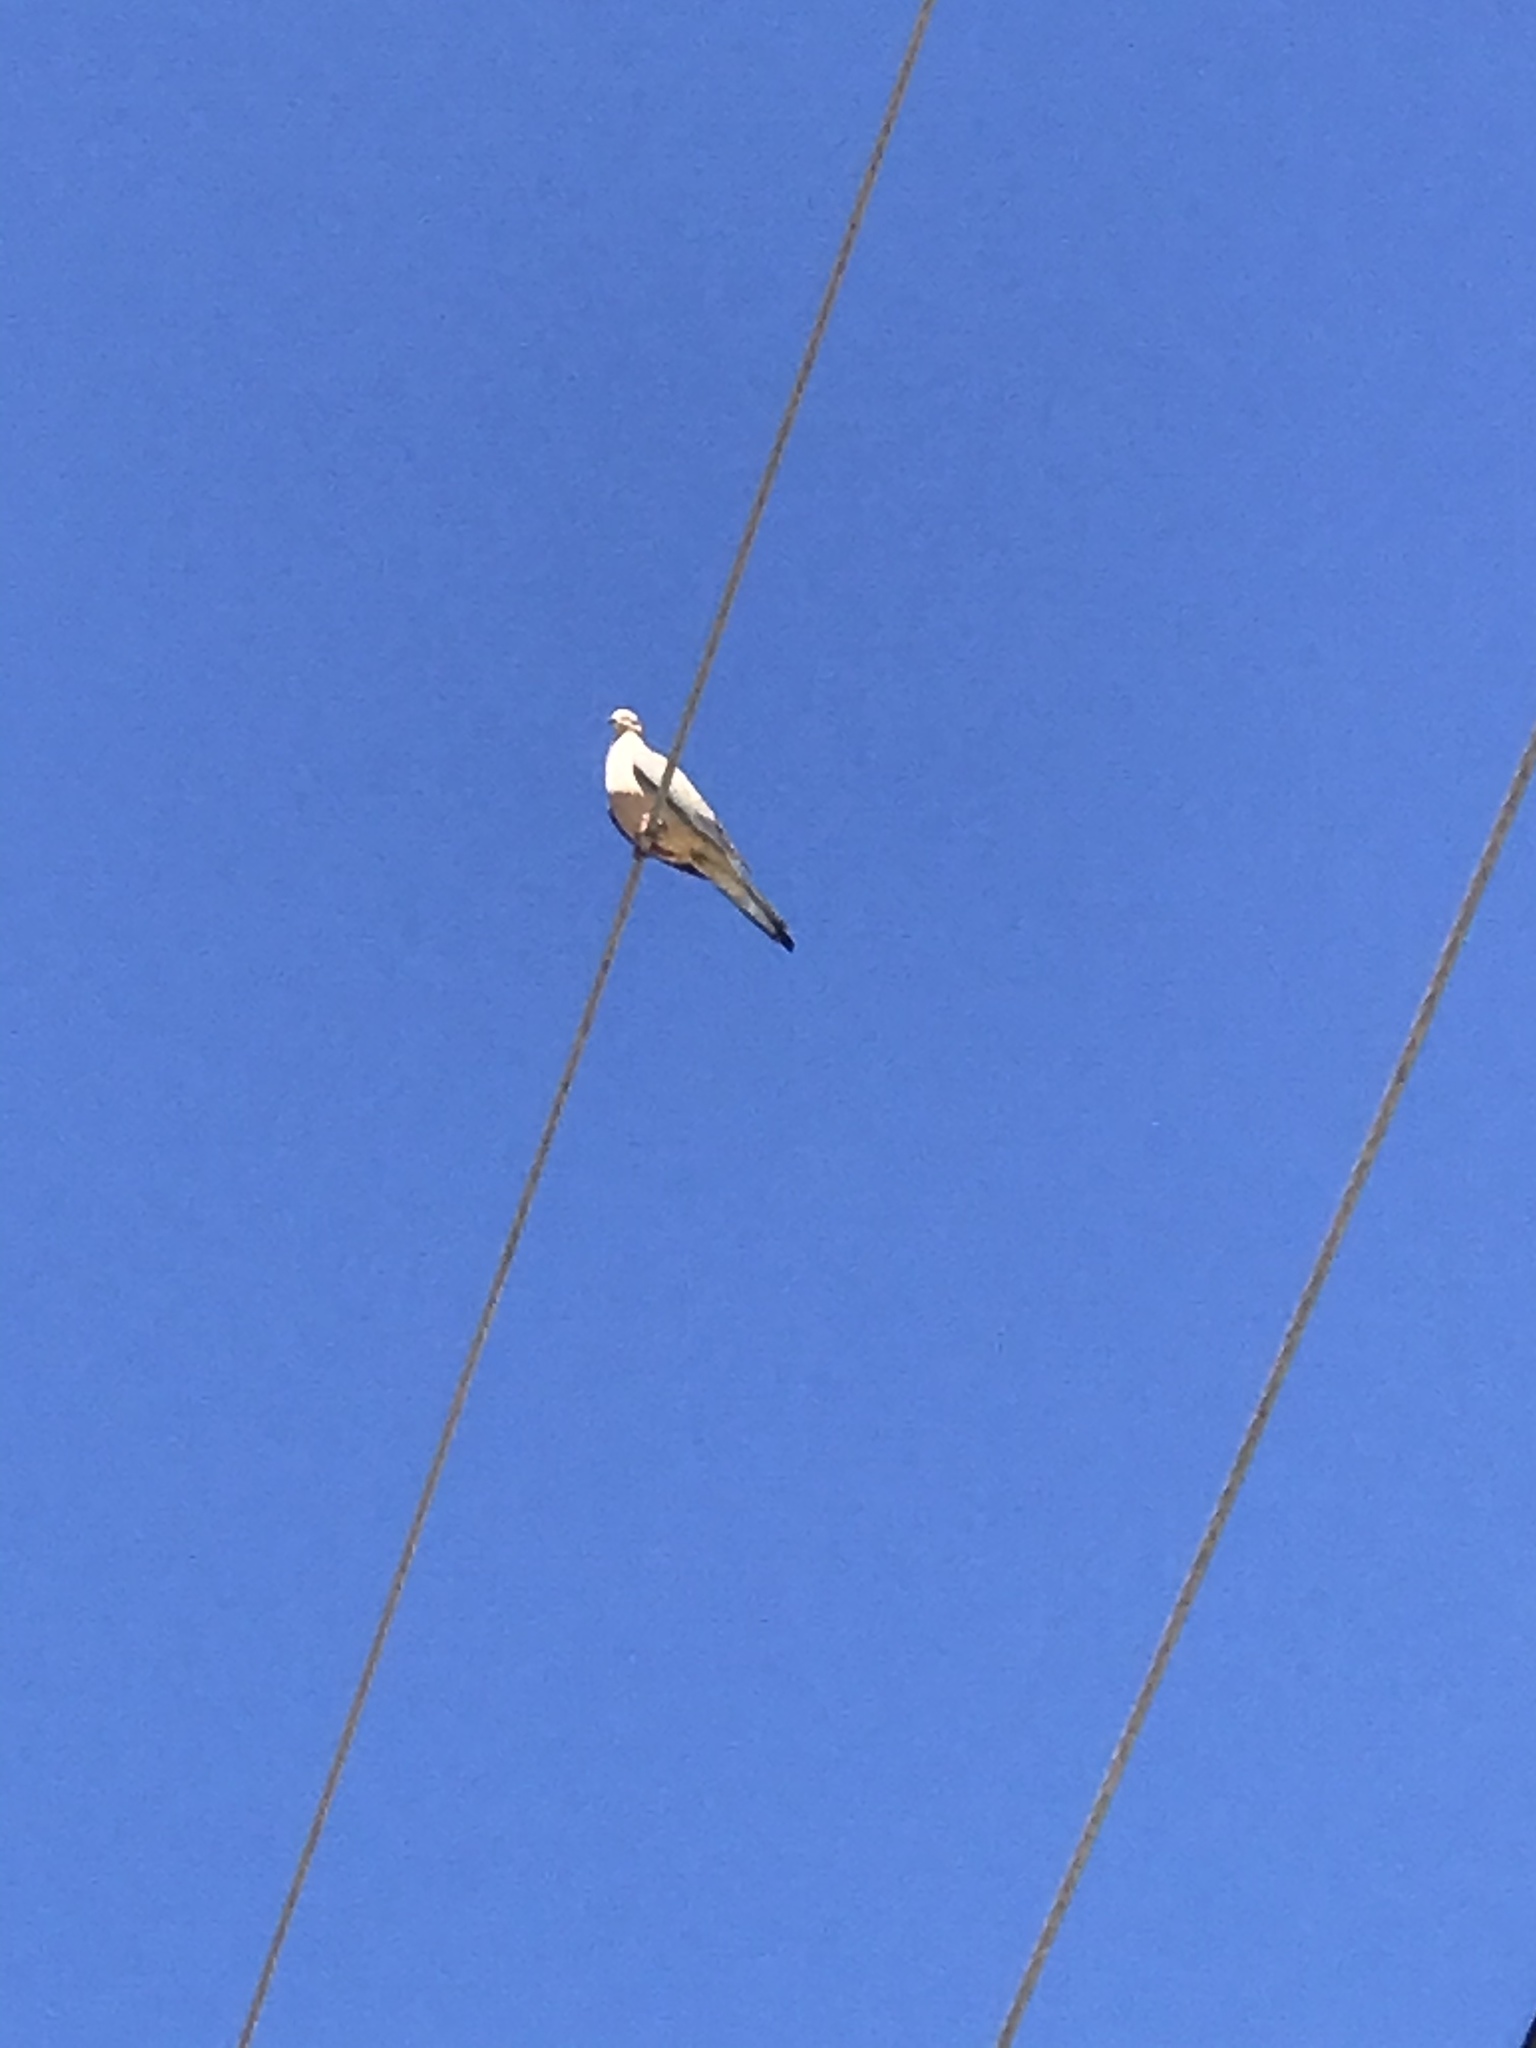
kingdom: Animalia
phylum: Chordata
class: Aves
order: Columbiformes
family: Columbidae
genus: Zenaida
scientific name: Zenaida macroura
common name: Mourning dove
